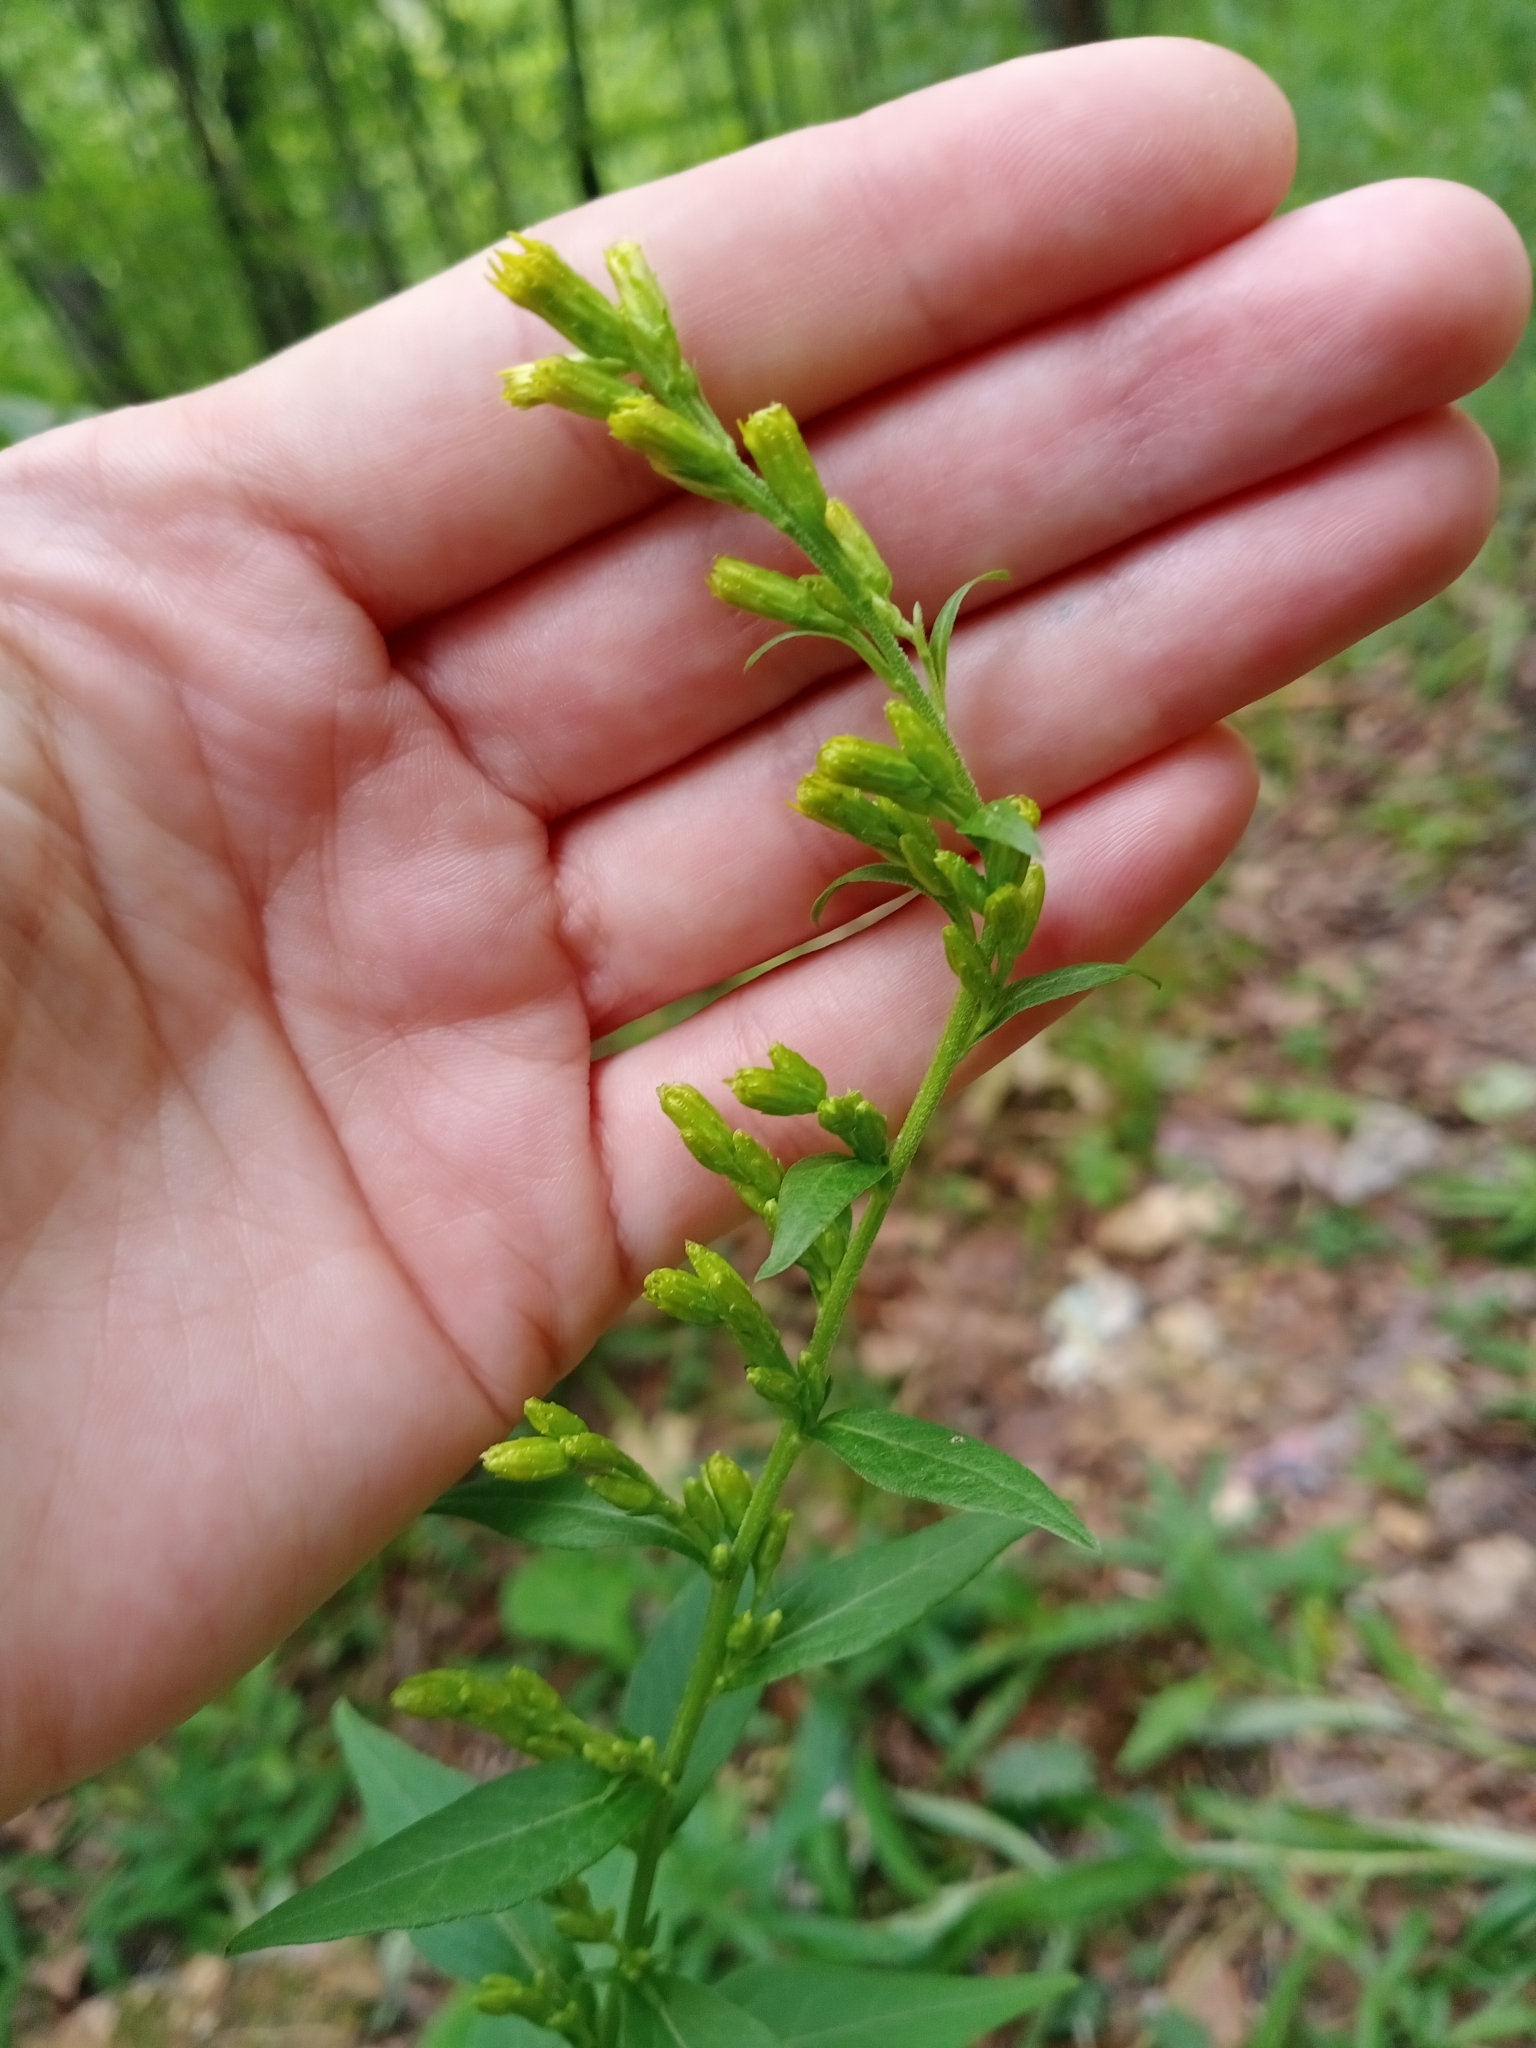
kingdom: Plantae
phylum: Tracheophyta
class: Magnoliopsida
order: Asterales
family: Asteraceae
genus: Solidago
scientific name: Solidago virgaurea
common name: Goldenrod
